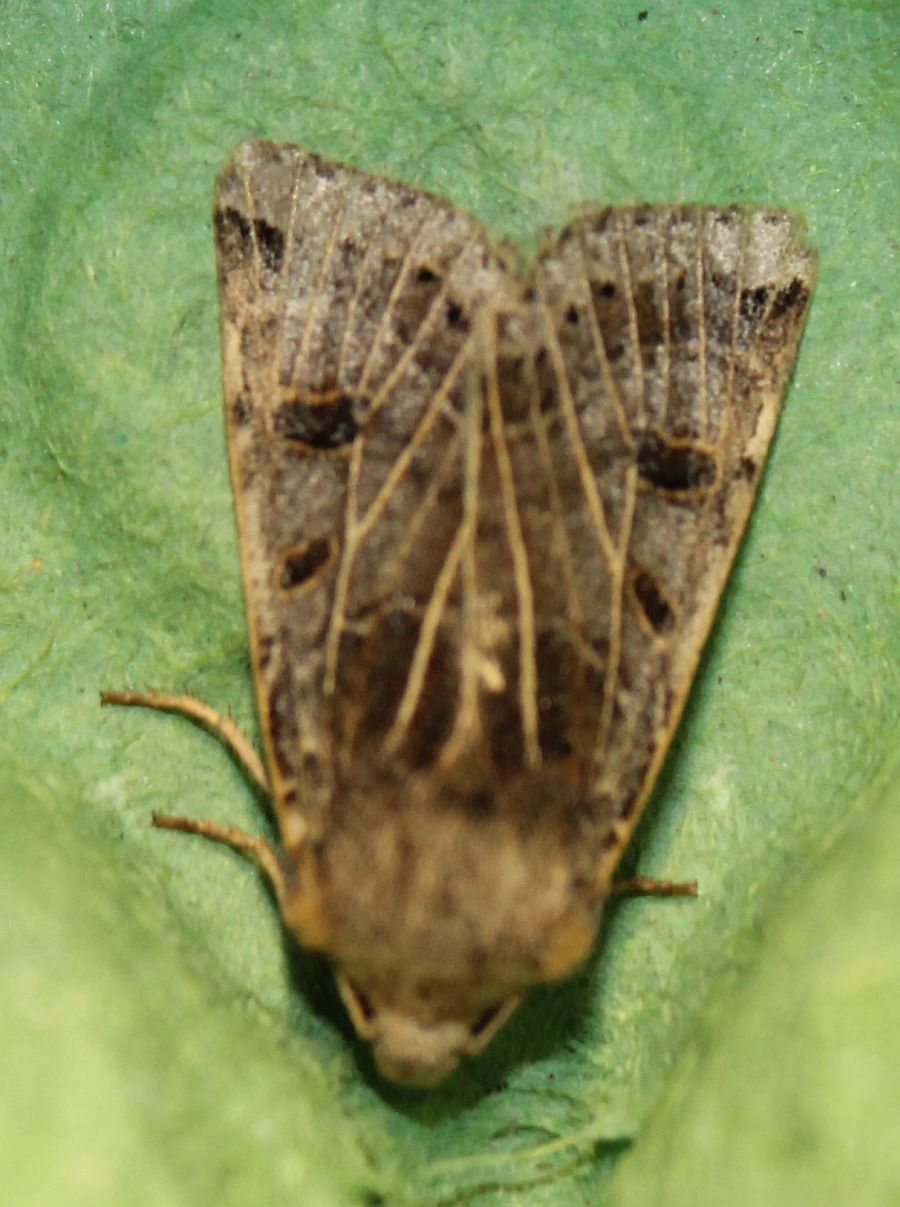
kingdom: Animalia
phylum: Arthropoda
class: Insecta
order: Lepidoptera
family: Noctuidae
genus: Agrochola
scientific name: Agrochola lunosa
